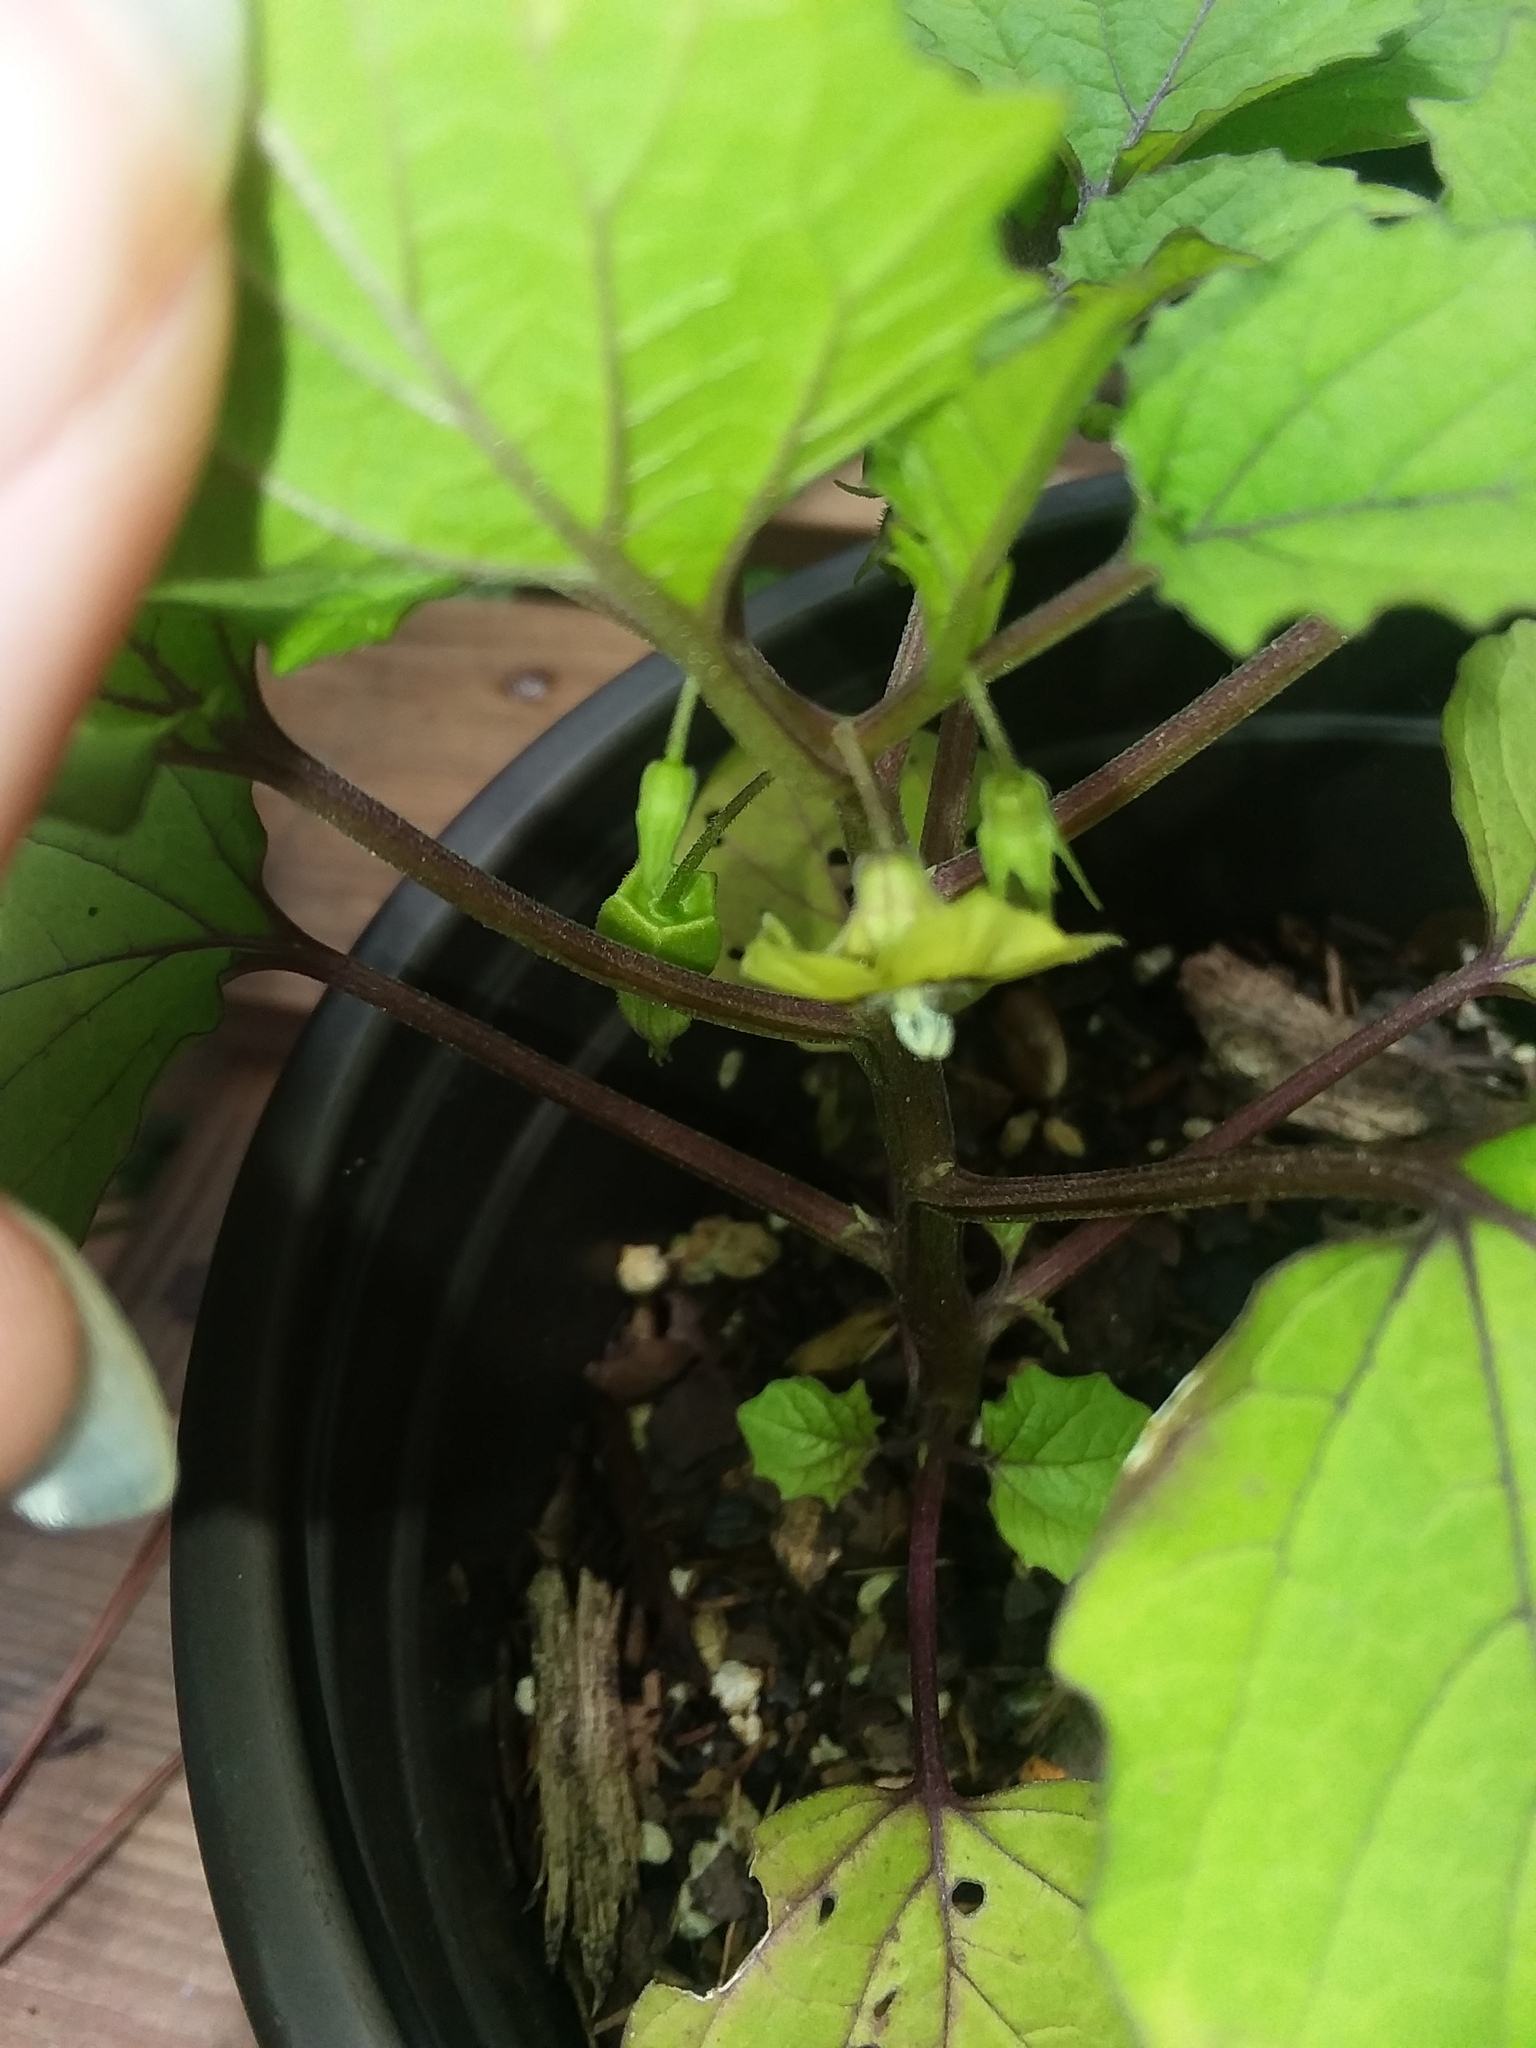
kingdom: Plantae
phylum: Tracheophyta
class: Magnoliopsida
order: Solanales
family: Solanaceae
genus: Physalis
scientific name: Physalis cordata
